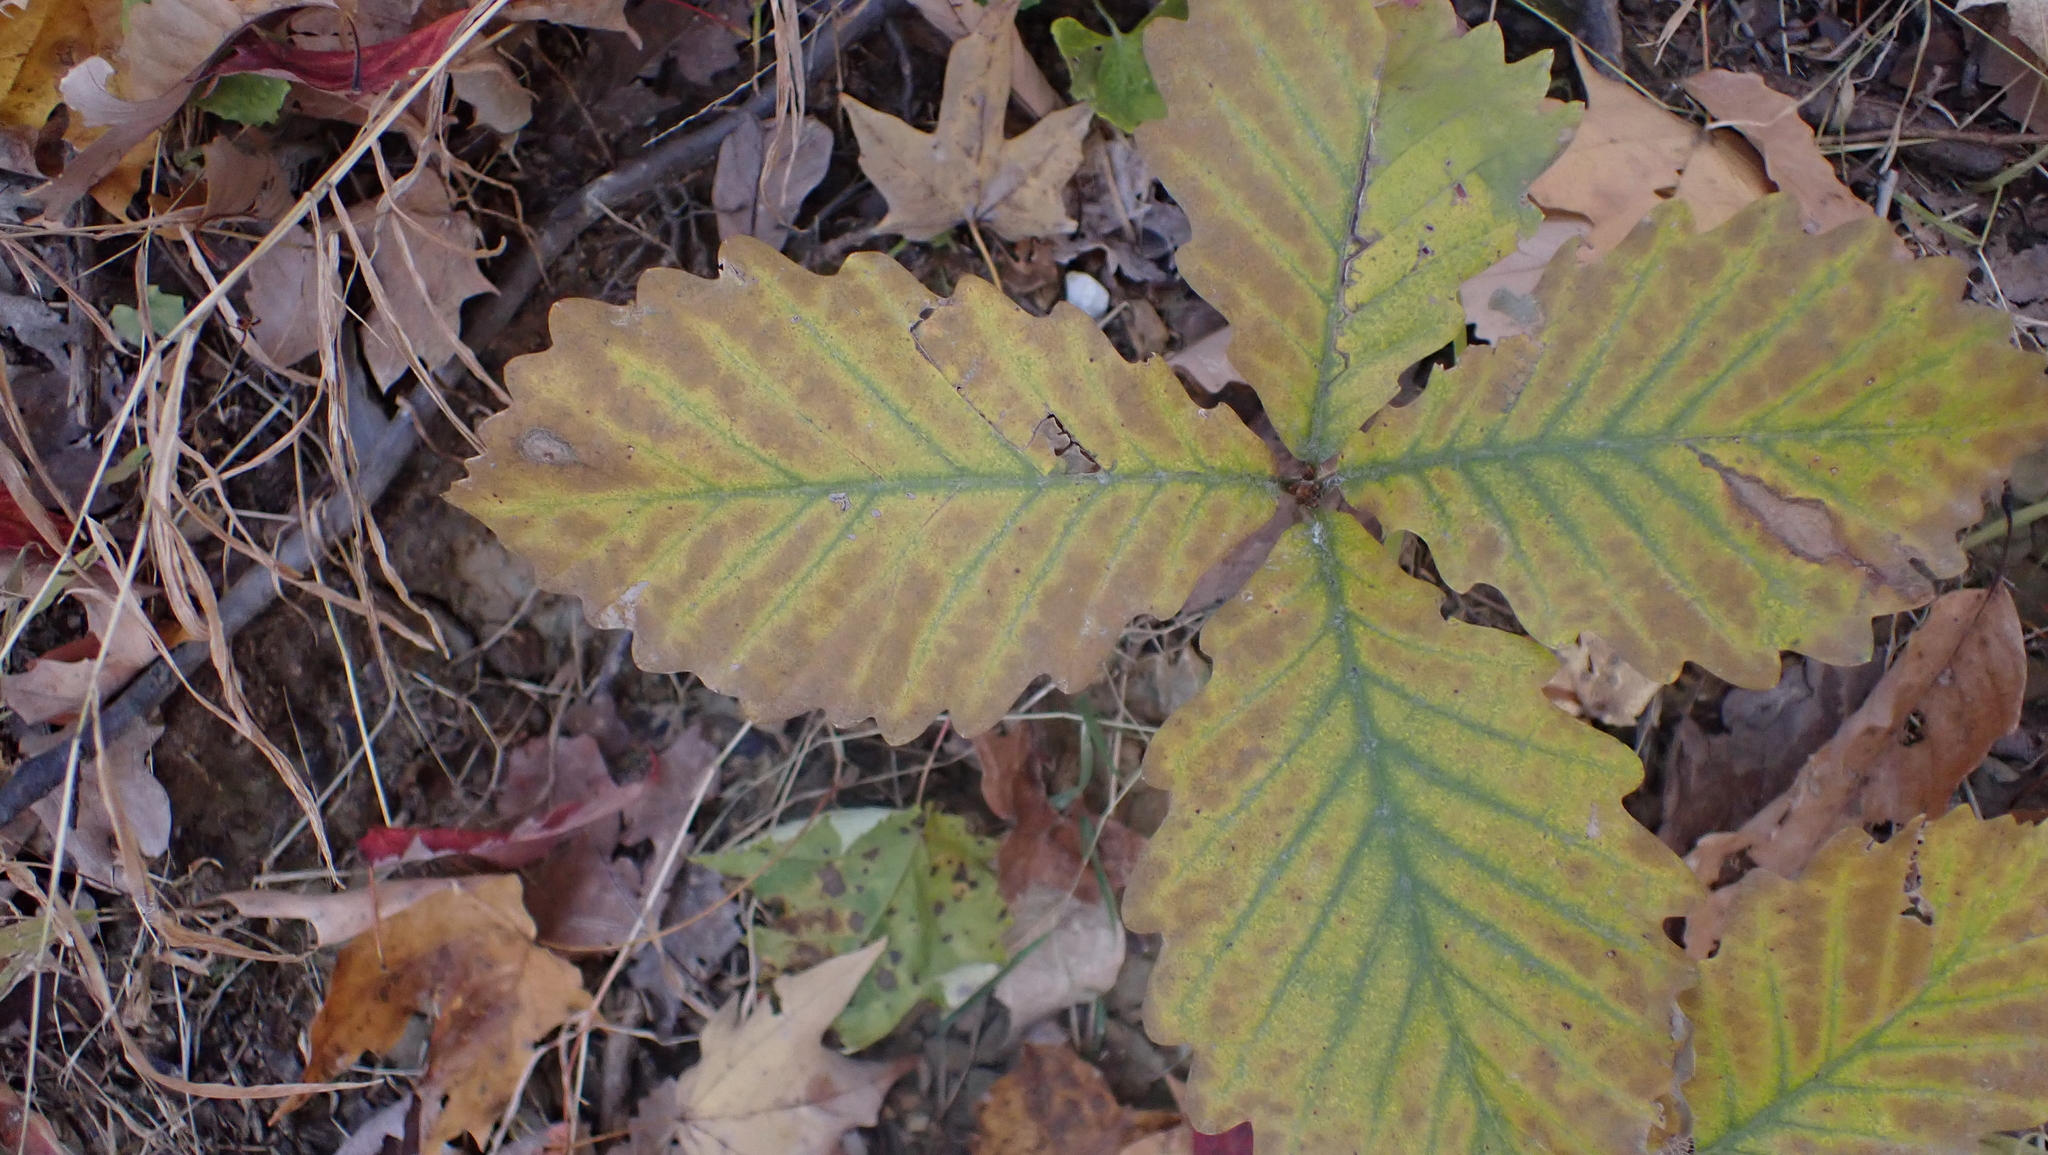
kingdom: Plantae
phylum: Tracheophyta
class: Magnoliopsida
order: Fagales
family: Fagaceae
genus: Quercus
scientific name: Quercus montana
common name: Chestnut oak
